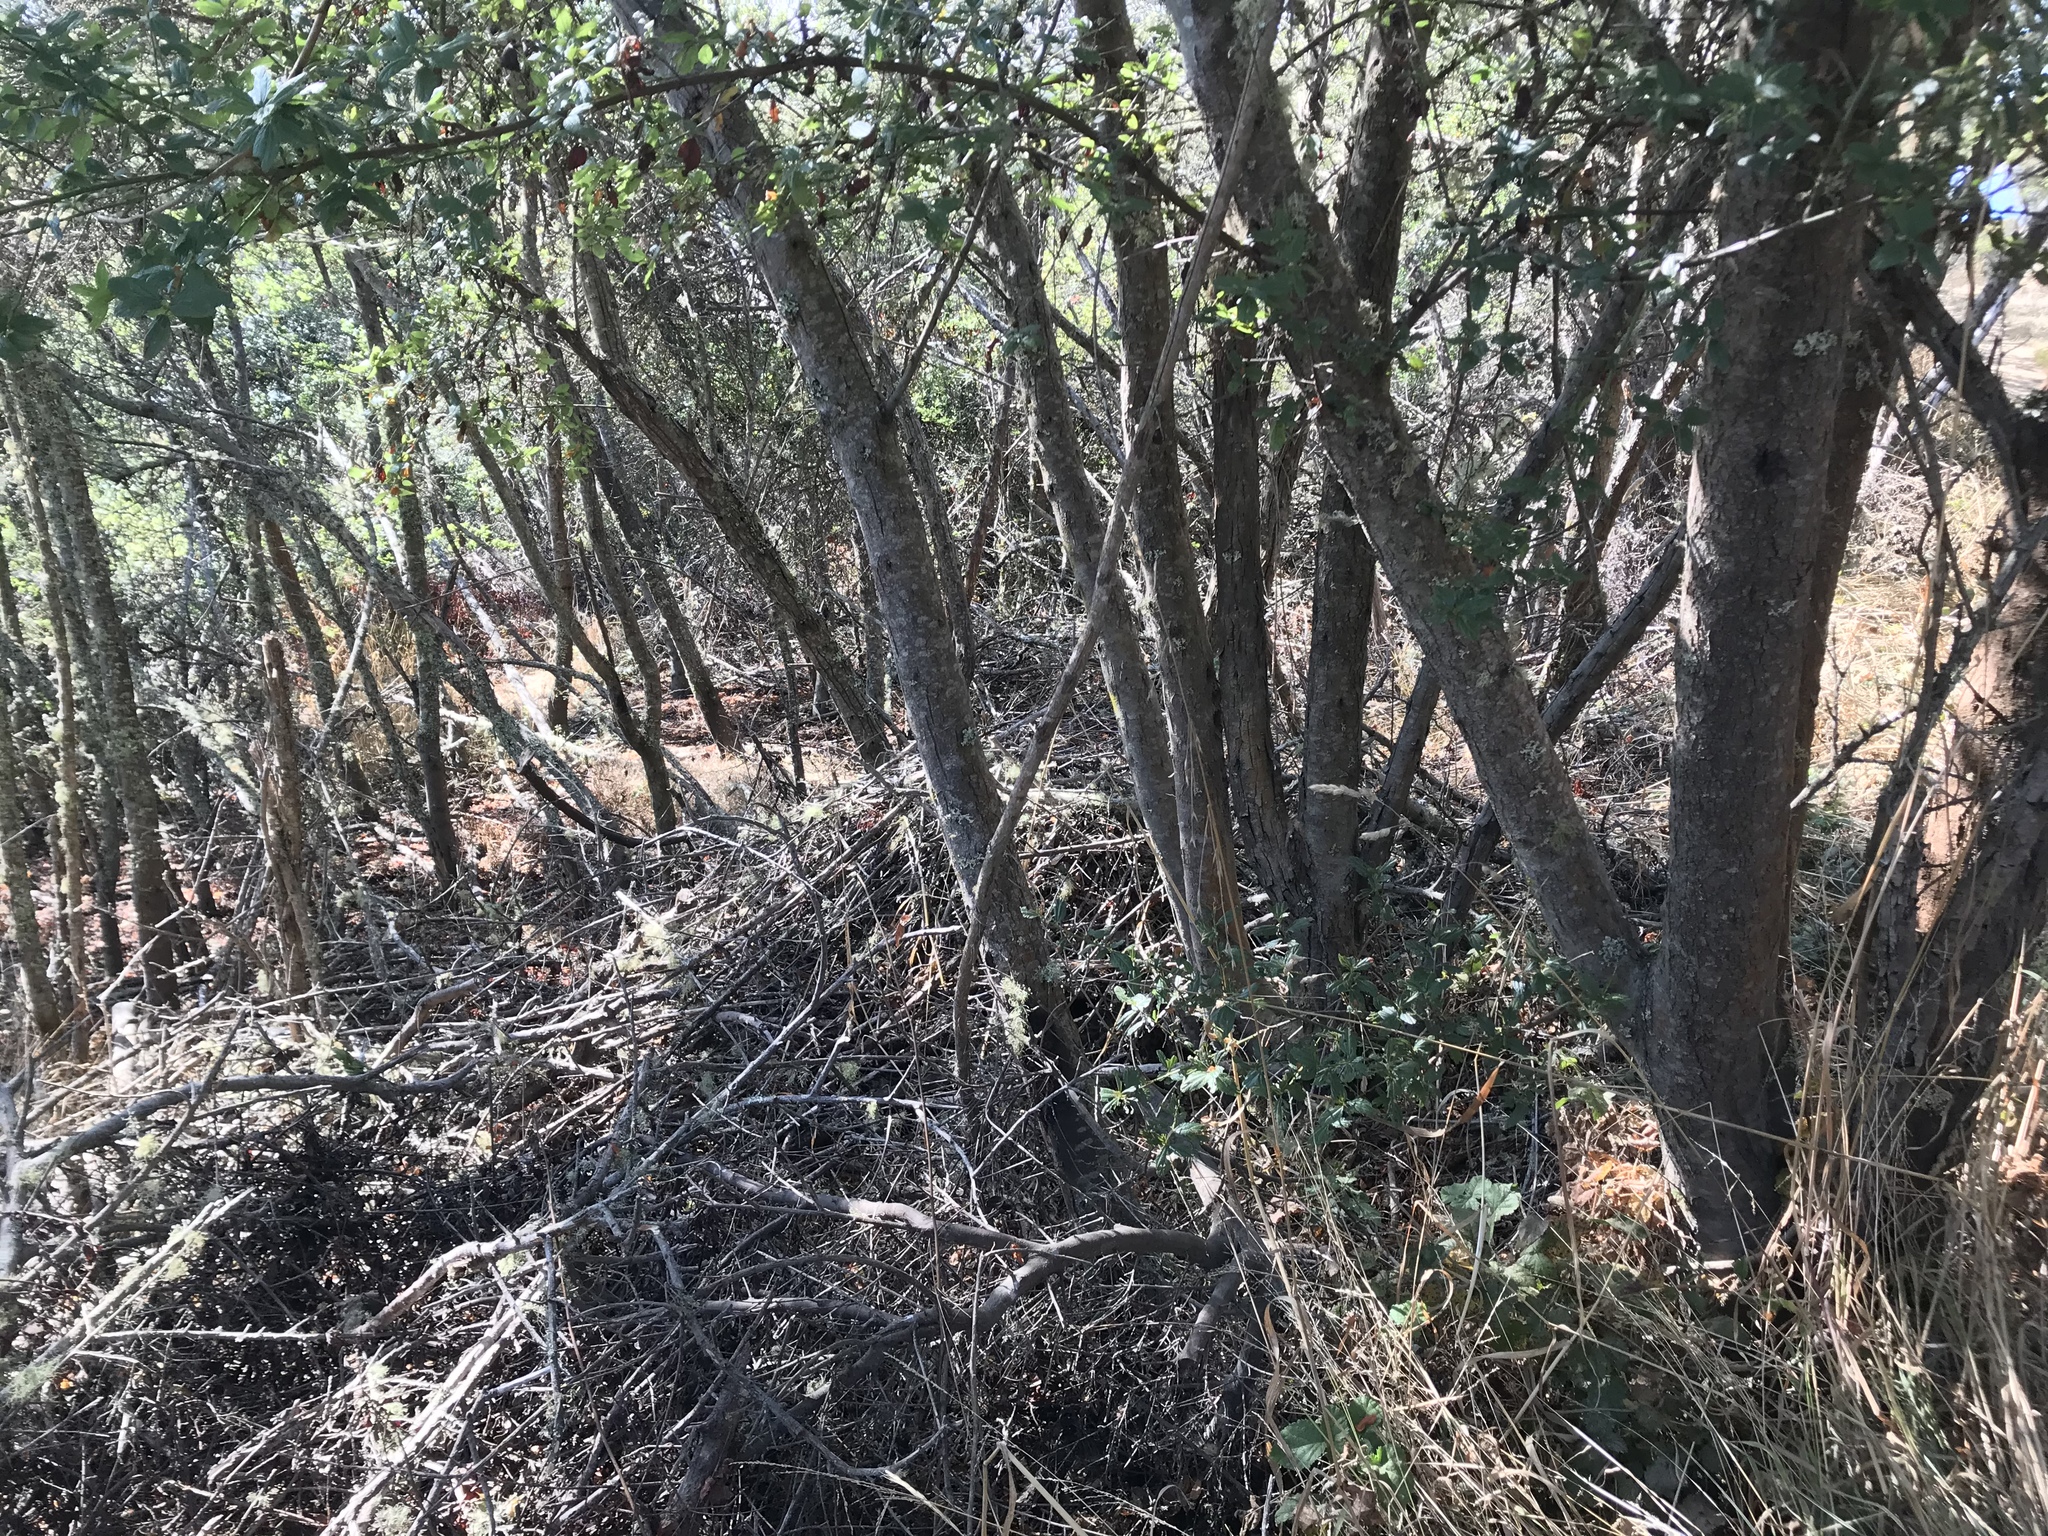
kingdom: Animalia
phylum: Chordata
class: Mammalia
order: Rodentia
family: Cricetidae
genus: Neotoma
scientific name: Neotoma fuscipes
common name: Dusky-footed woodrat
